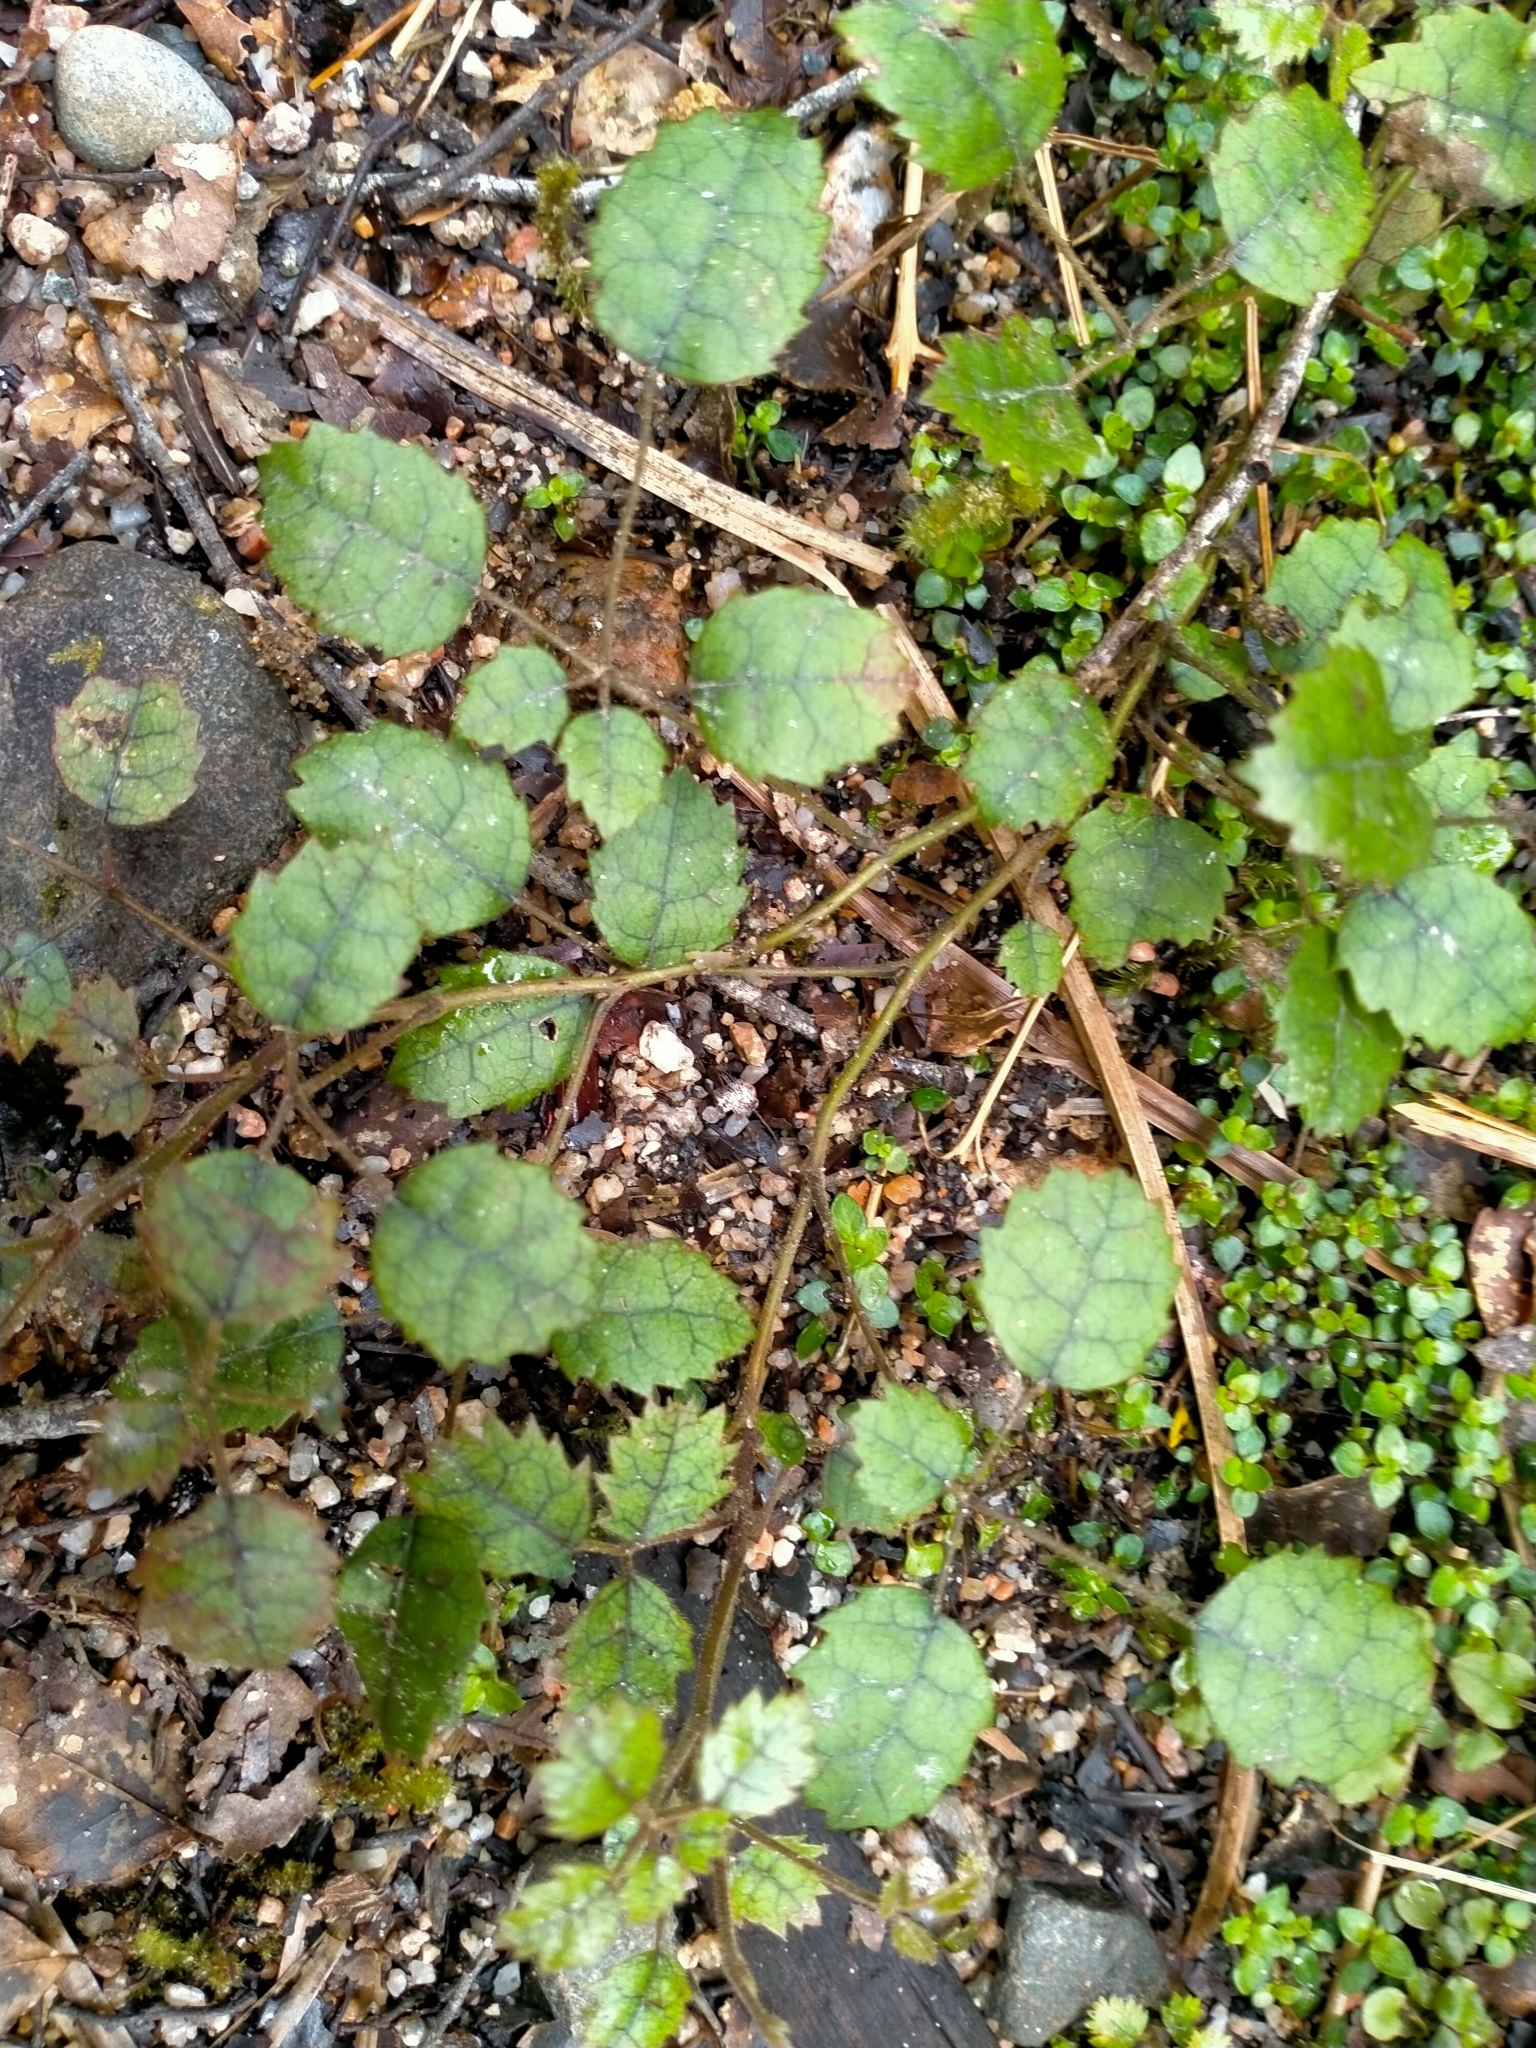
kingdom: Plantae
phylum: Tracheophyta
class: Magnoliopsida
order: Rosales
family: Rosaceae
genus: Rubus
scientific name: Rubus australis
